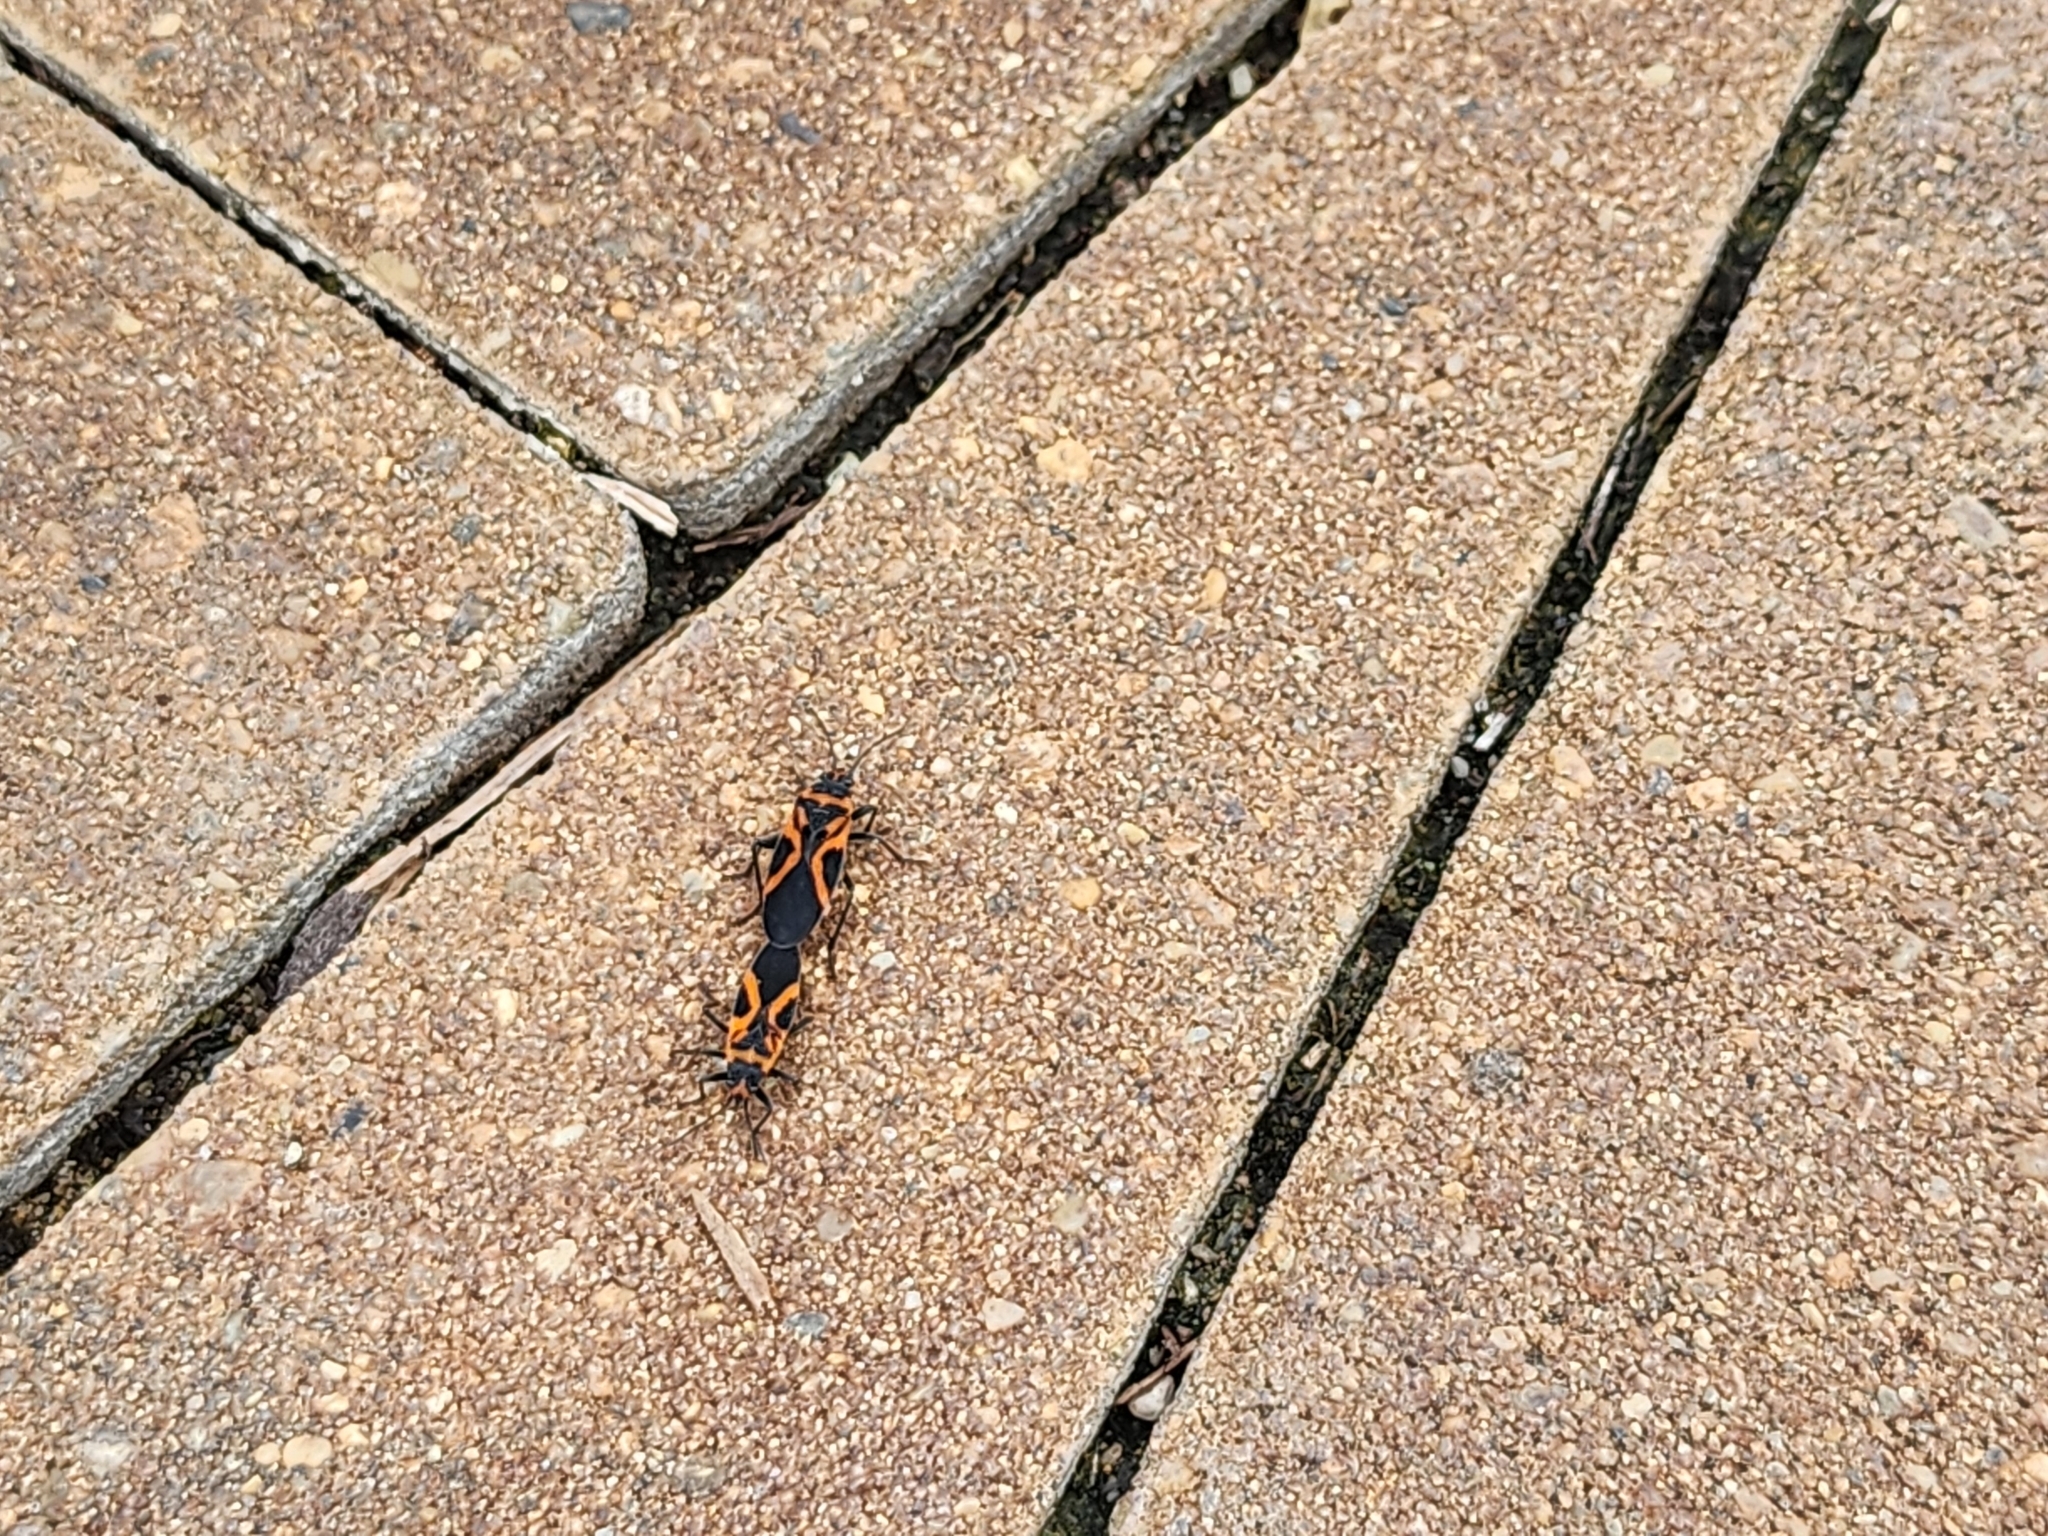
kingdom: Animalia
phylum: Arthropoda
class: Insecta
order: Hemiptera
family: Lygaeidae
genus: Lygaeus
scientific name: Lygaeus turcicus
